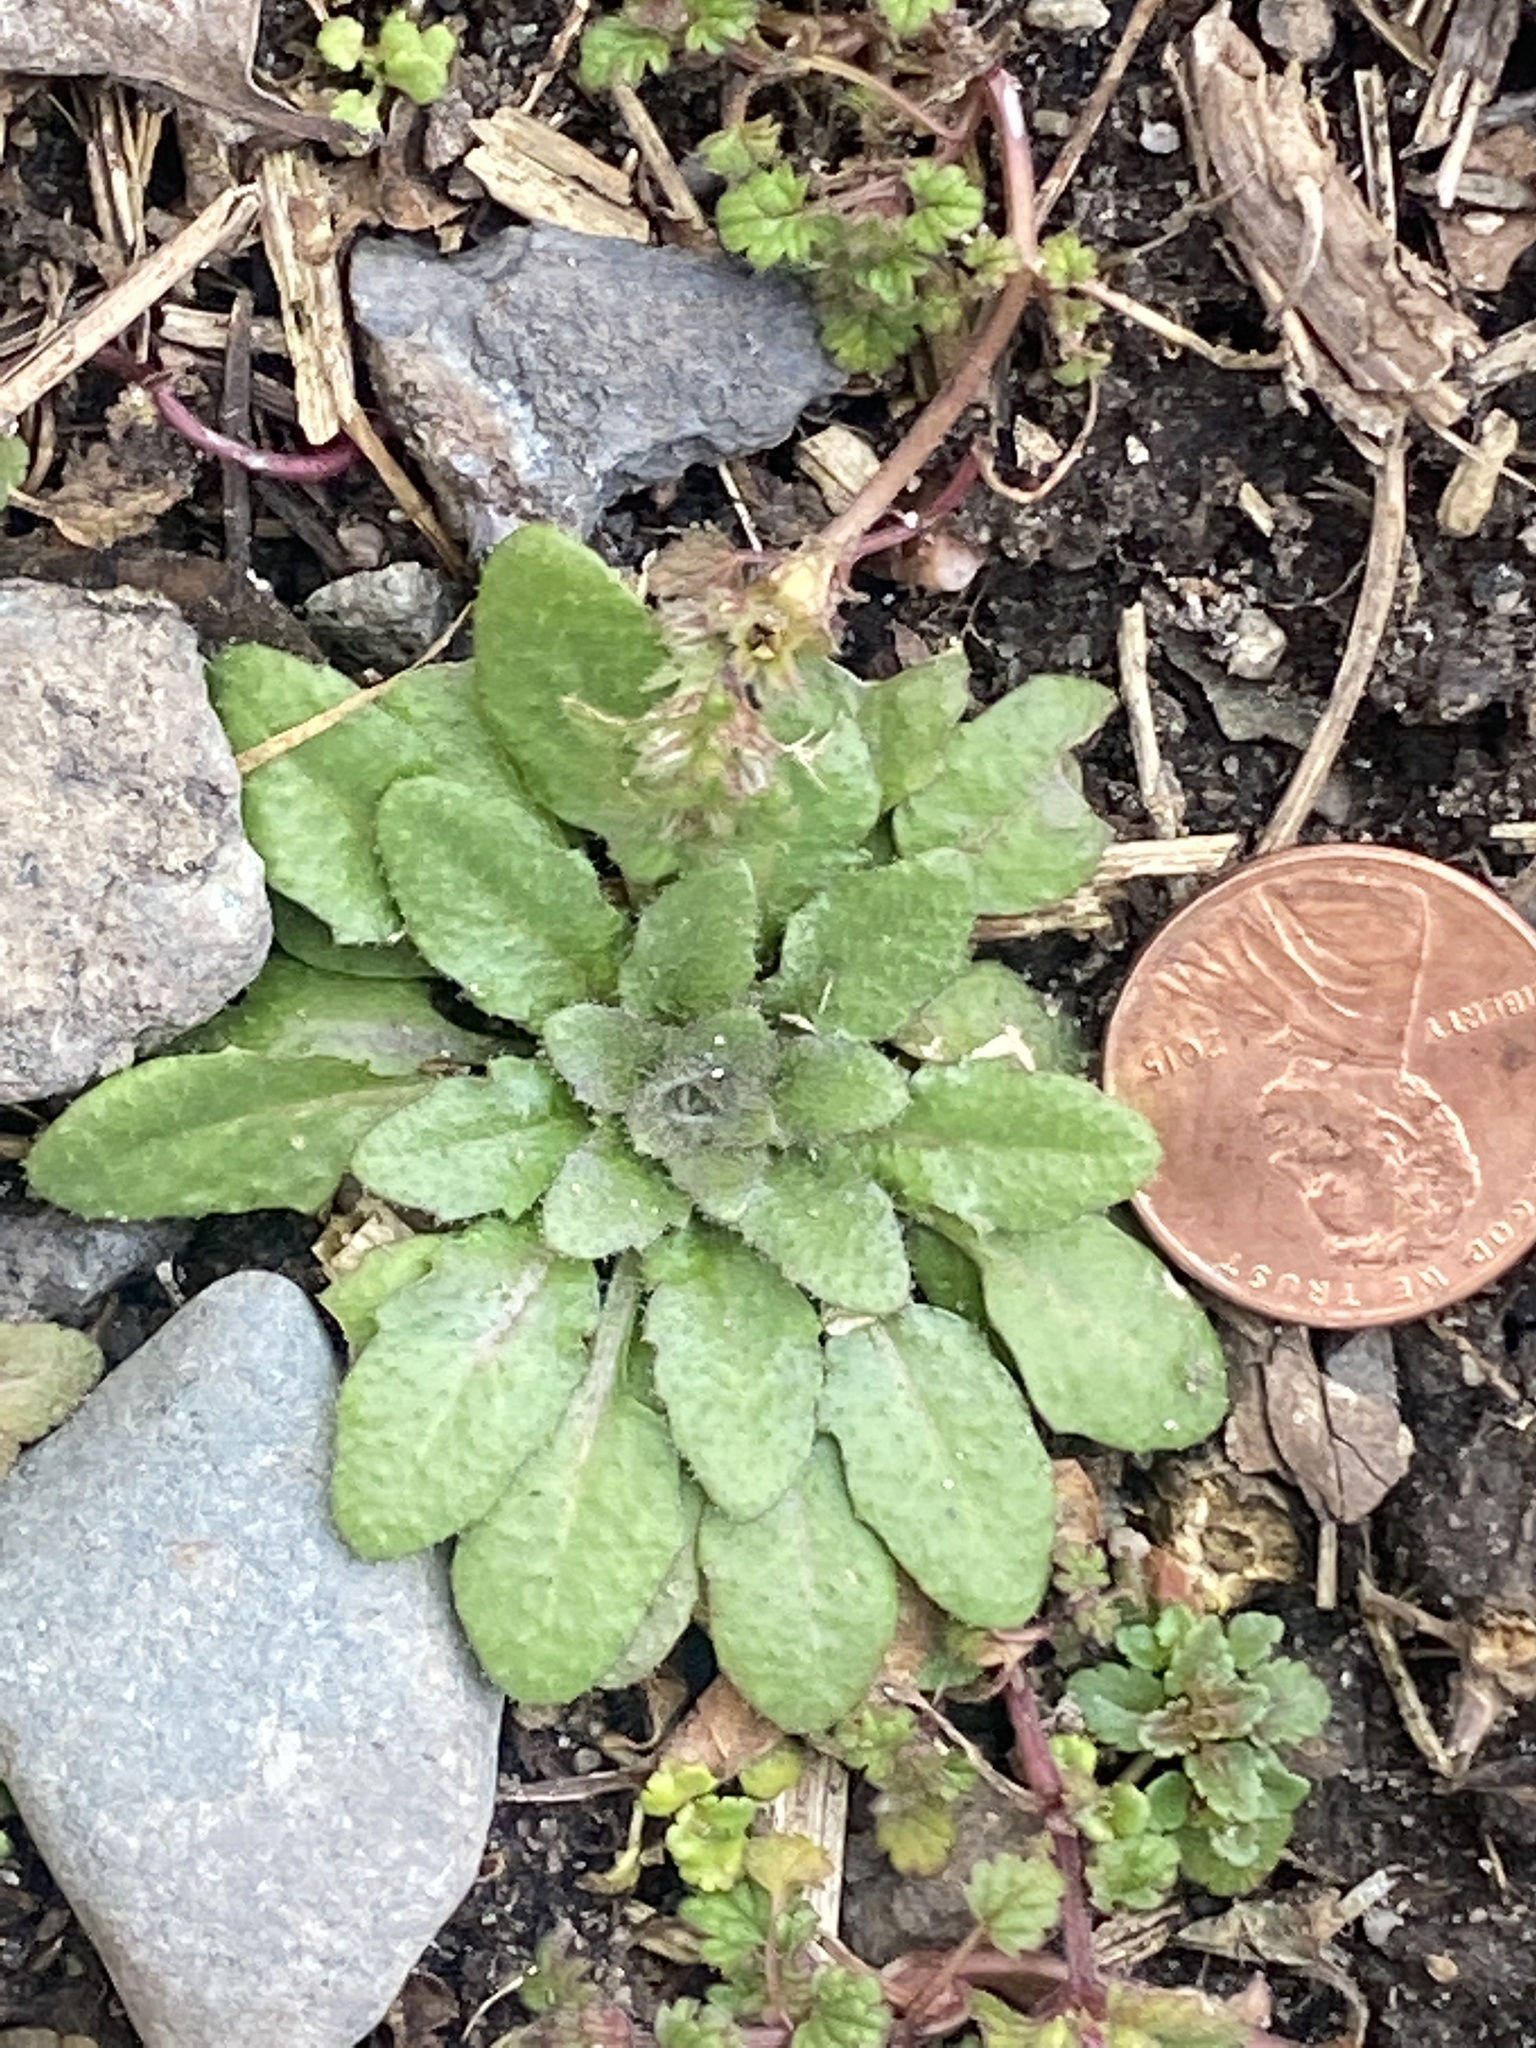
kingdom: Plantae
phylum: Tracheophyta
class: Magnoliopsida
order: Brassicales
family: Brassicaceae
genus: Draba
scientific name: Draba verna
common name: Spring draba
